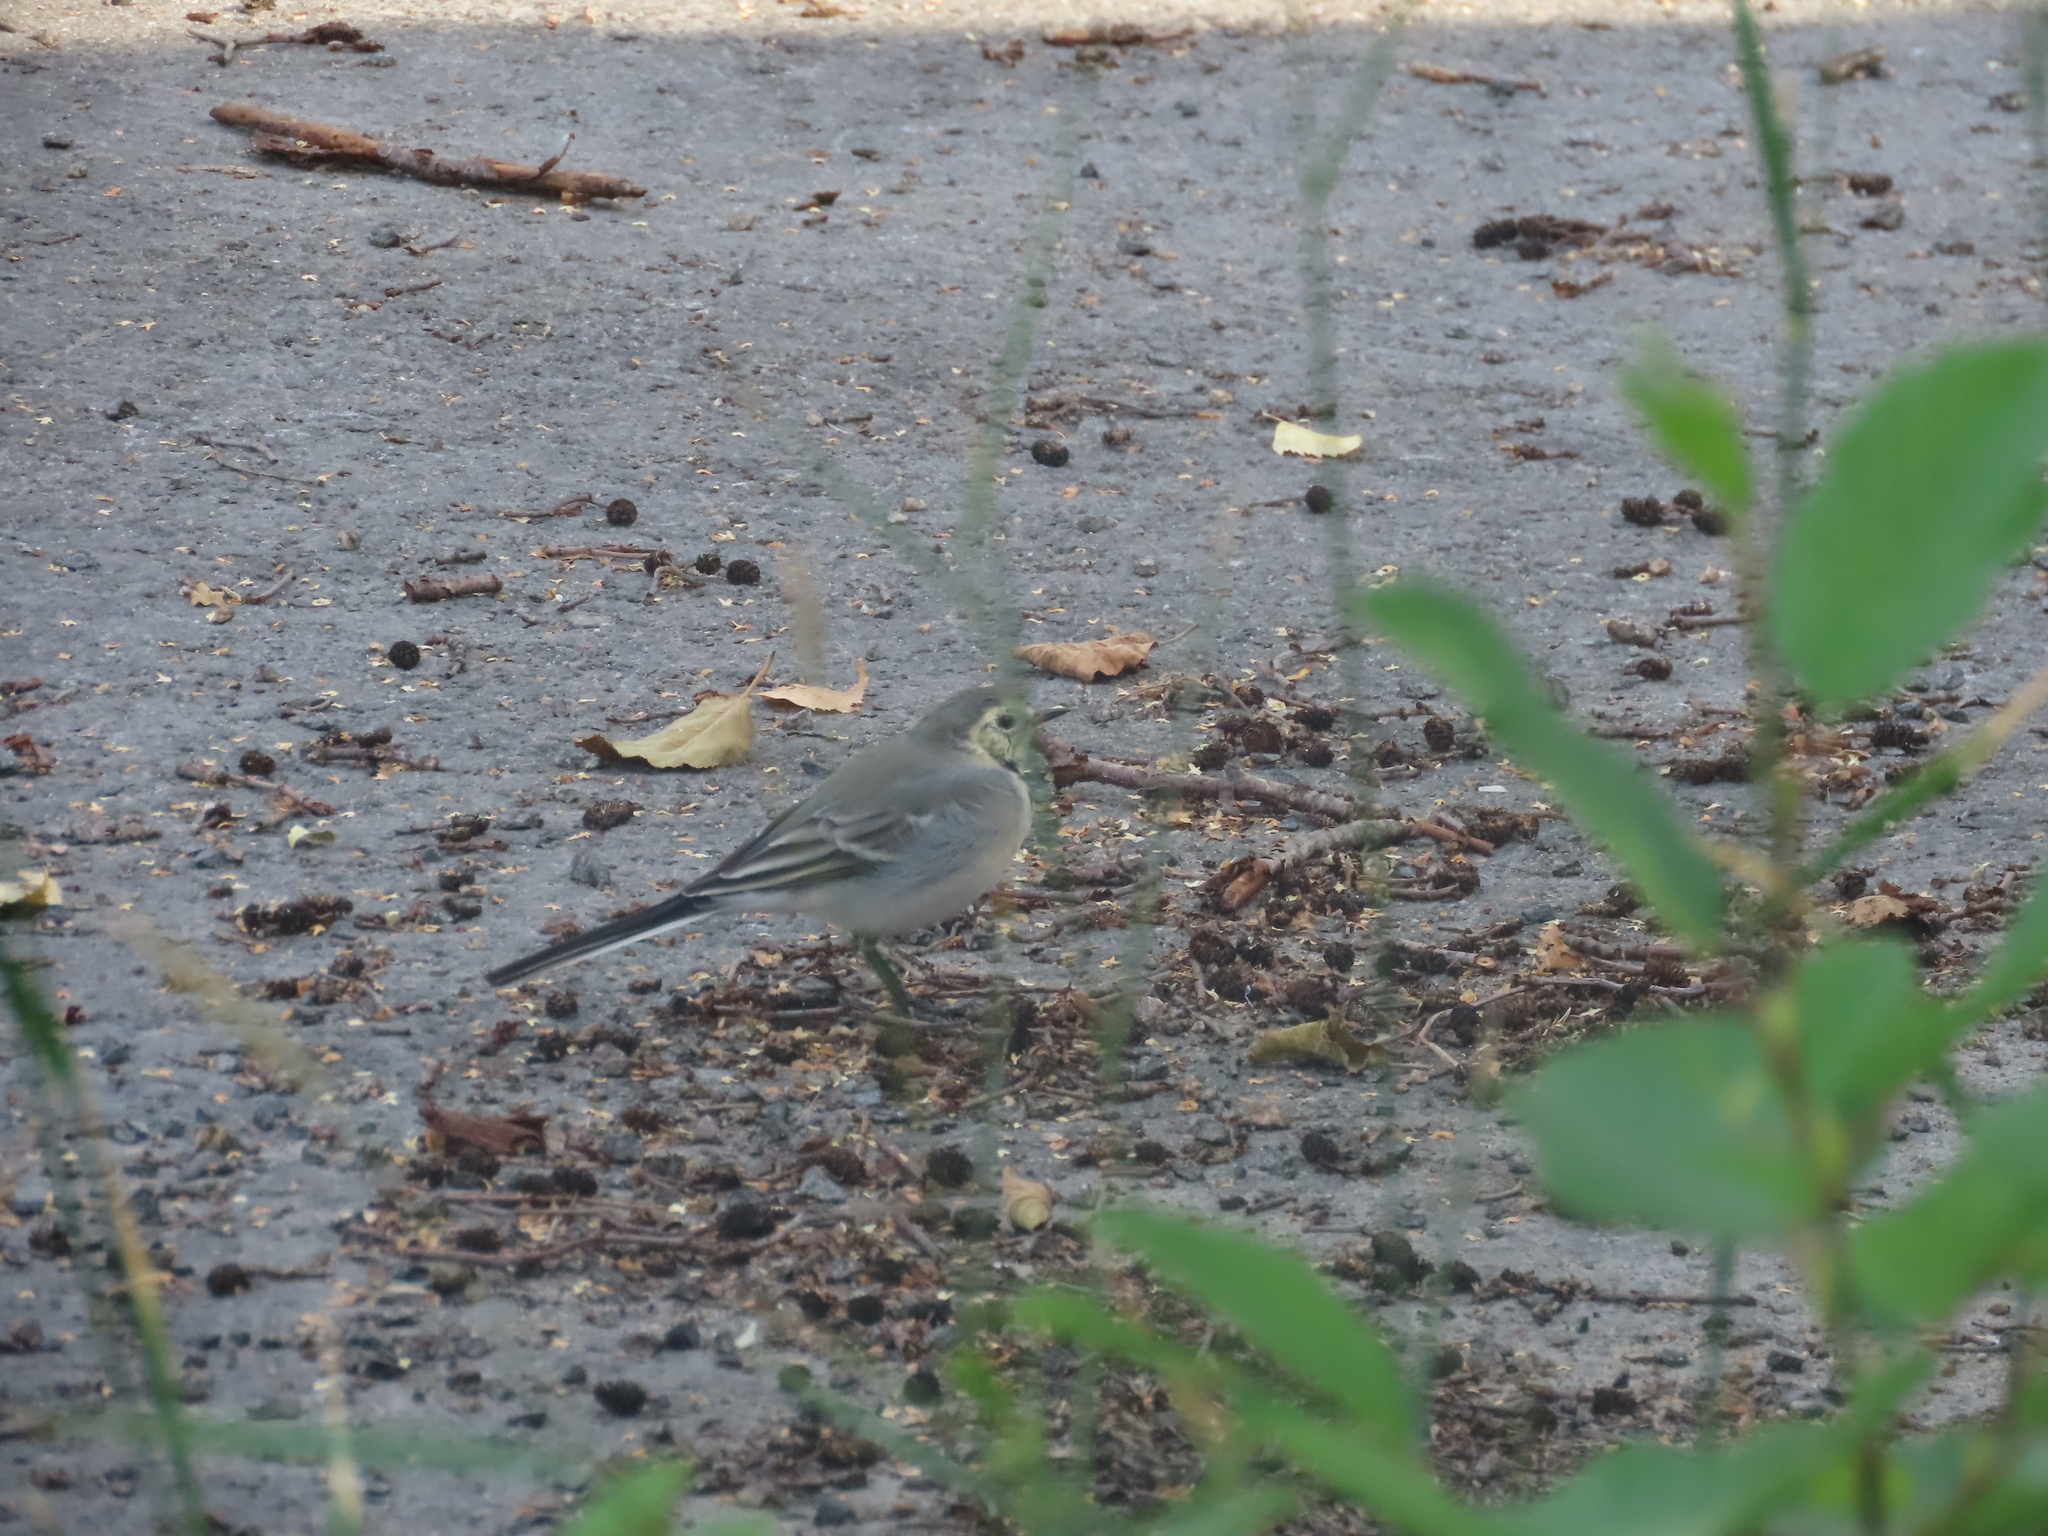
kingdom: Animalia
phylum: Chordata
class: Aves
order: Passeriformes
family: Motacillidae
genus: Motacilla
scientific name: Motacilla alba
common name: White wagtail
